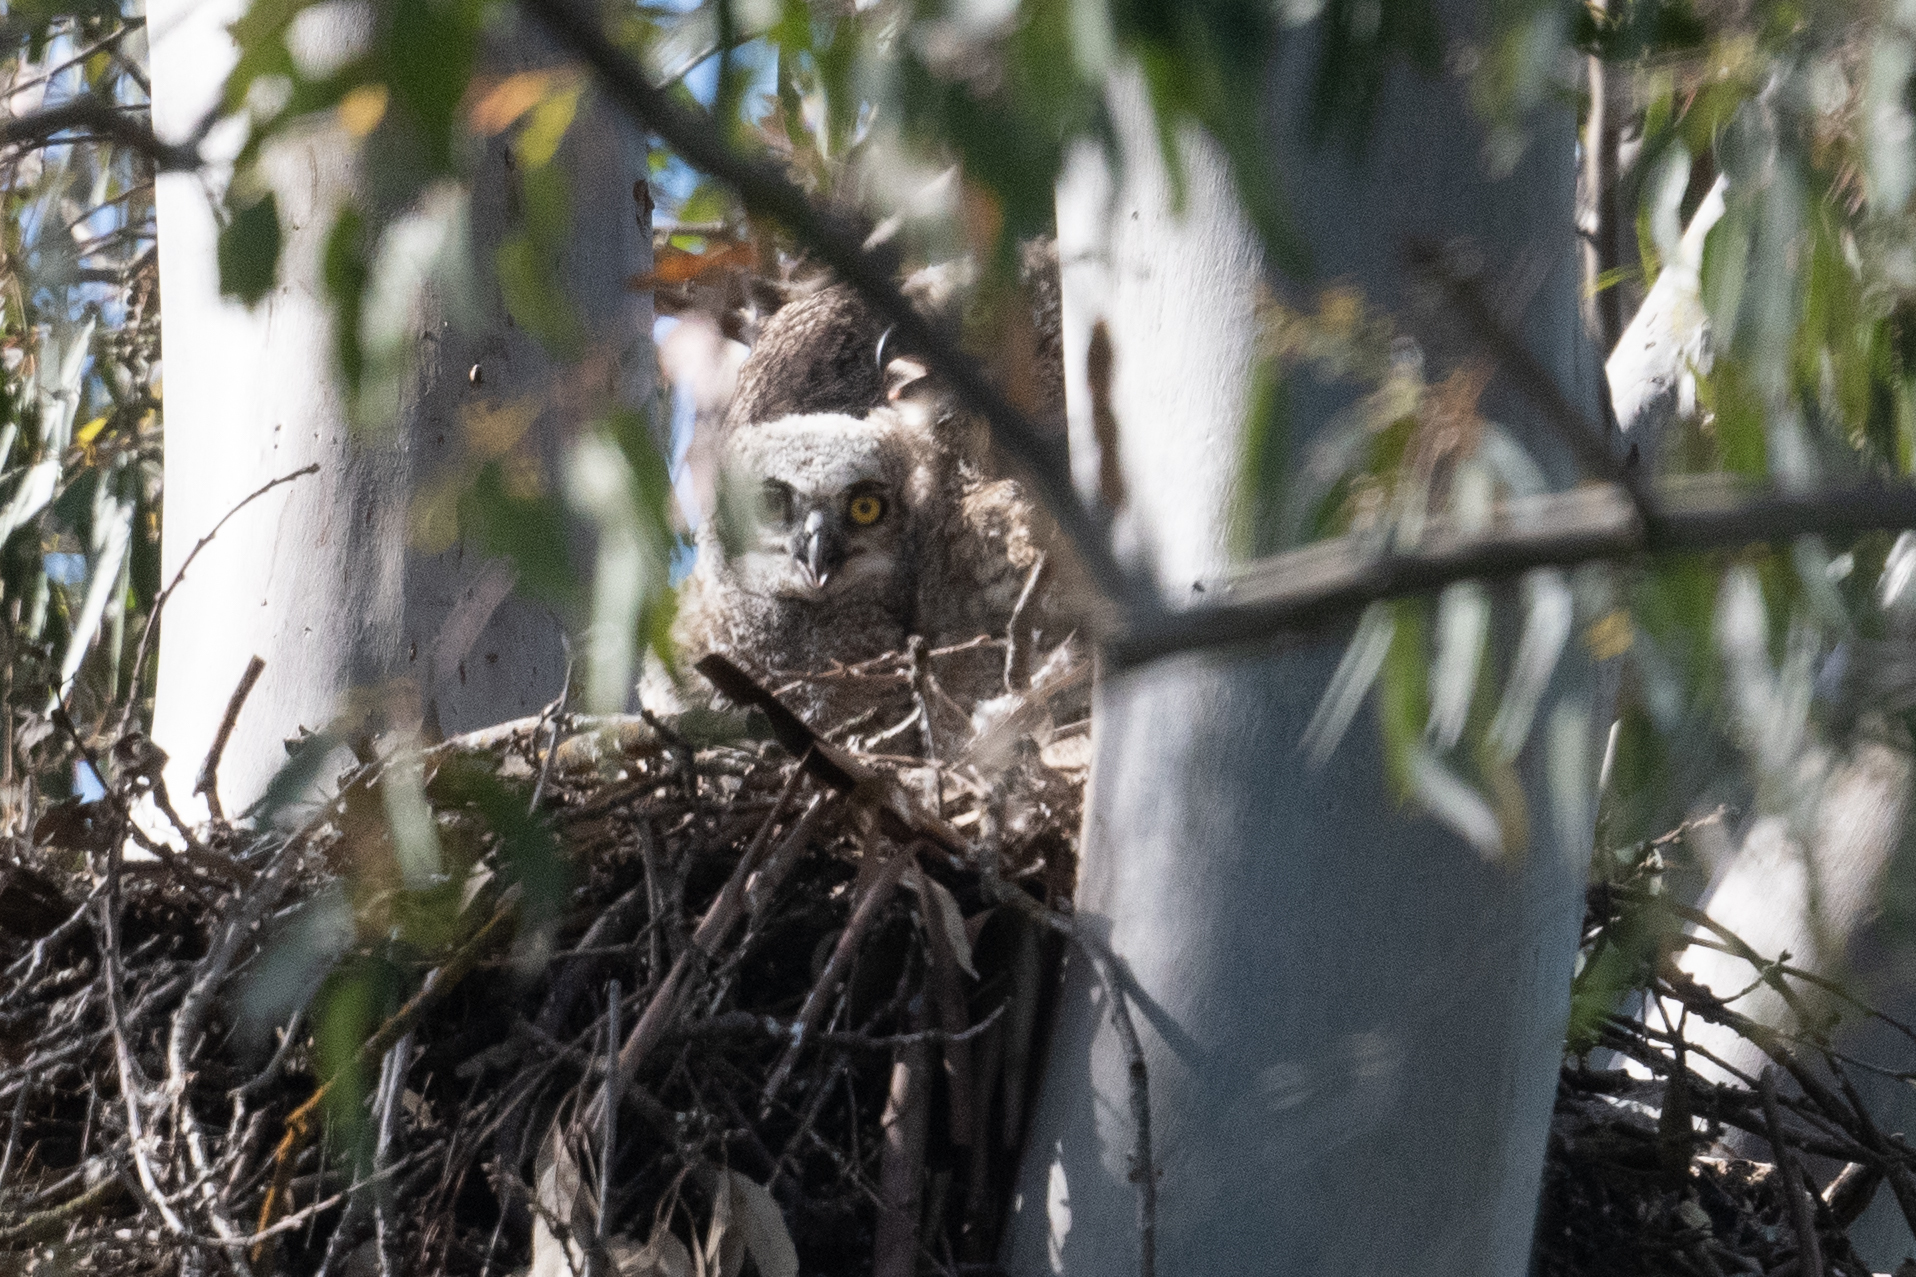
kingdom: Animalia
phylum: Chordata
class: Aves
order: Strigiformes
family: Strigidae
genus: Bubo
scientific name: Bubo virginianus
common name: Great horned owl
